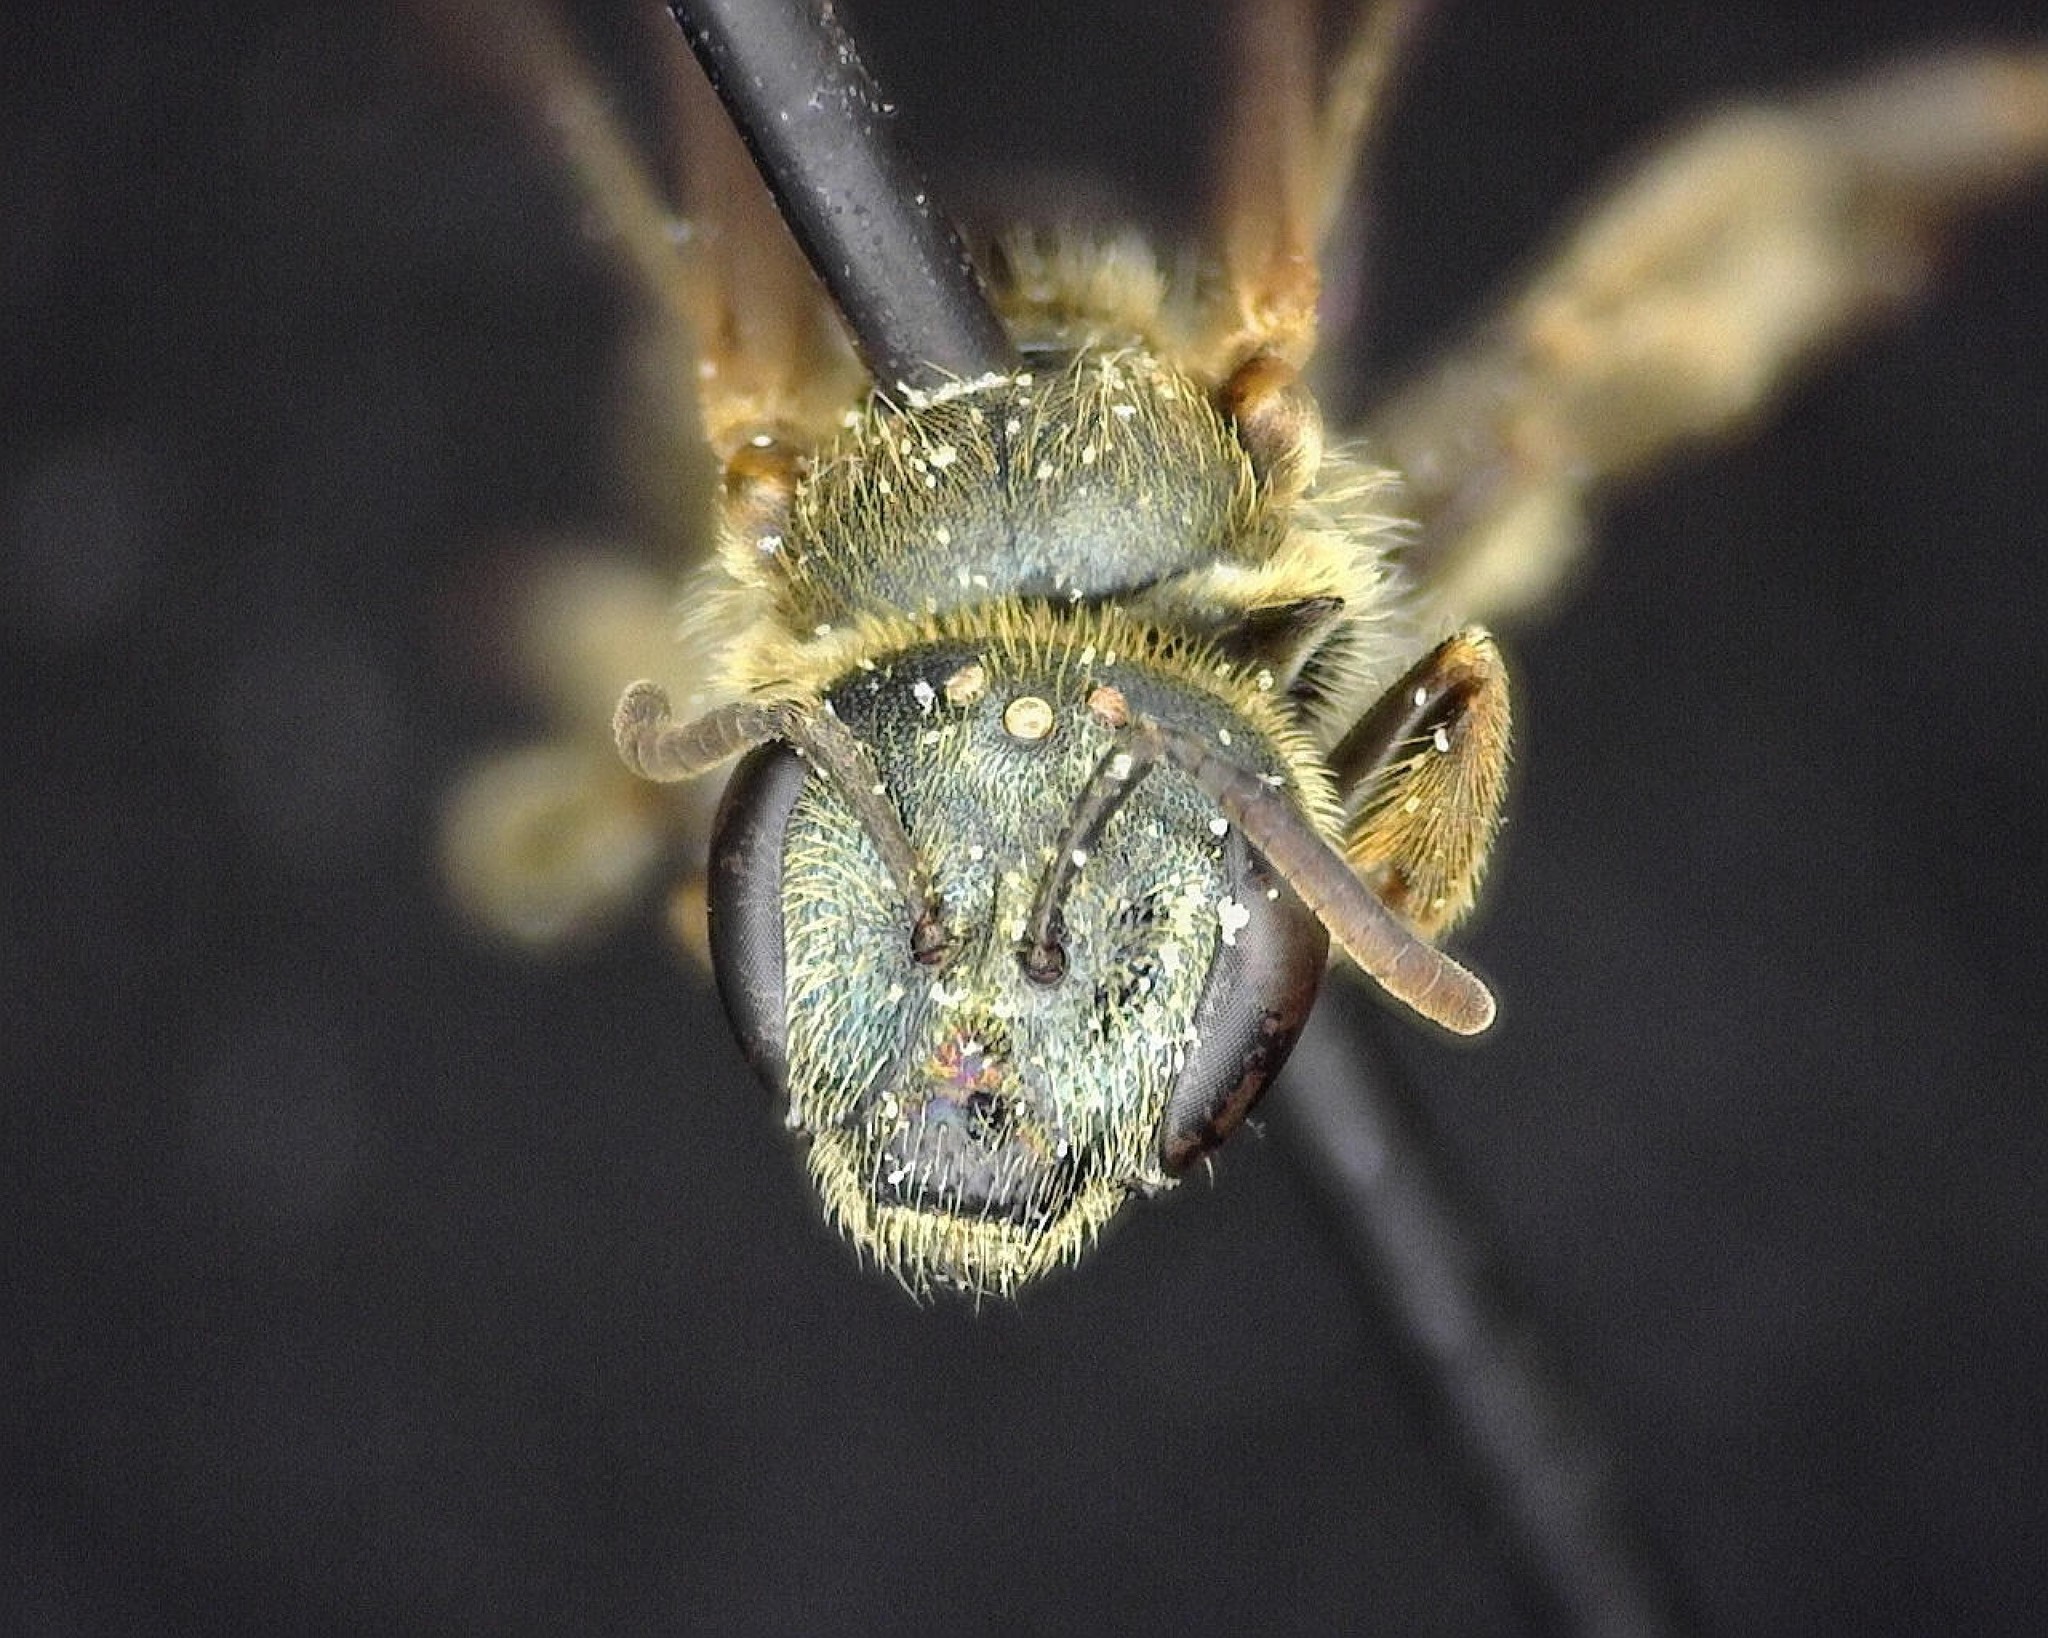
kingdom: Animalia
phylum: Arthropoda
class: Insecta
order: Hymenoptera
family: Halictidae
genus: Halictus
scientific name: Halictus confusus
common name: Southern bronze furrow bee
